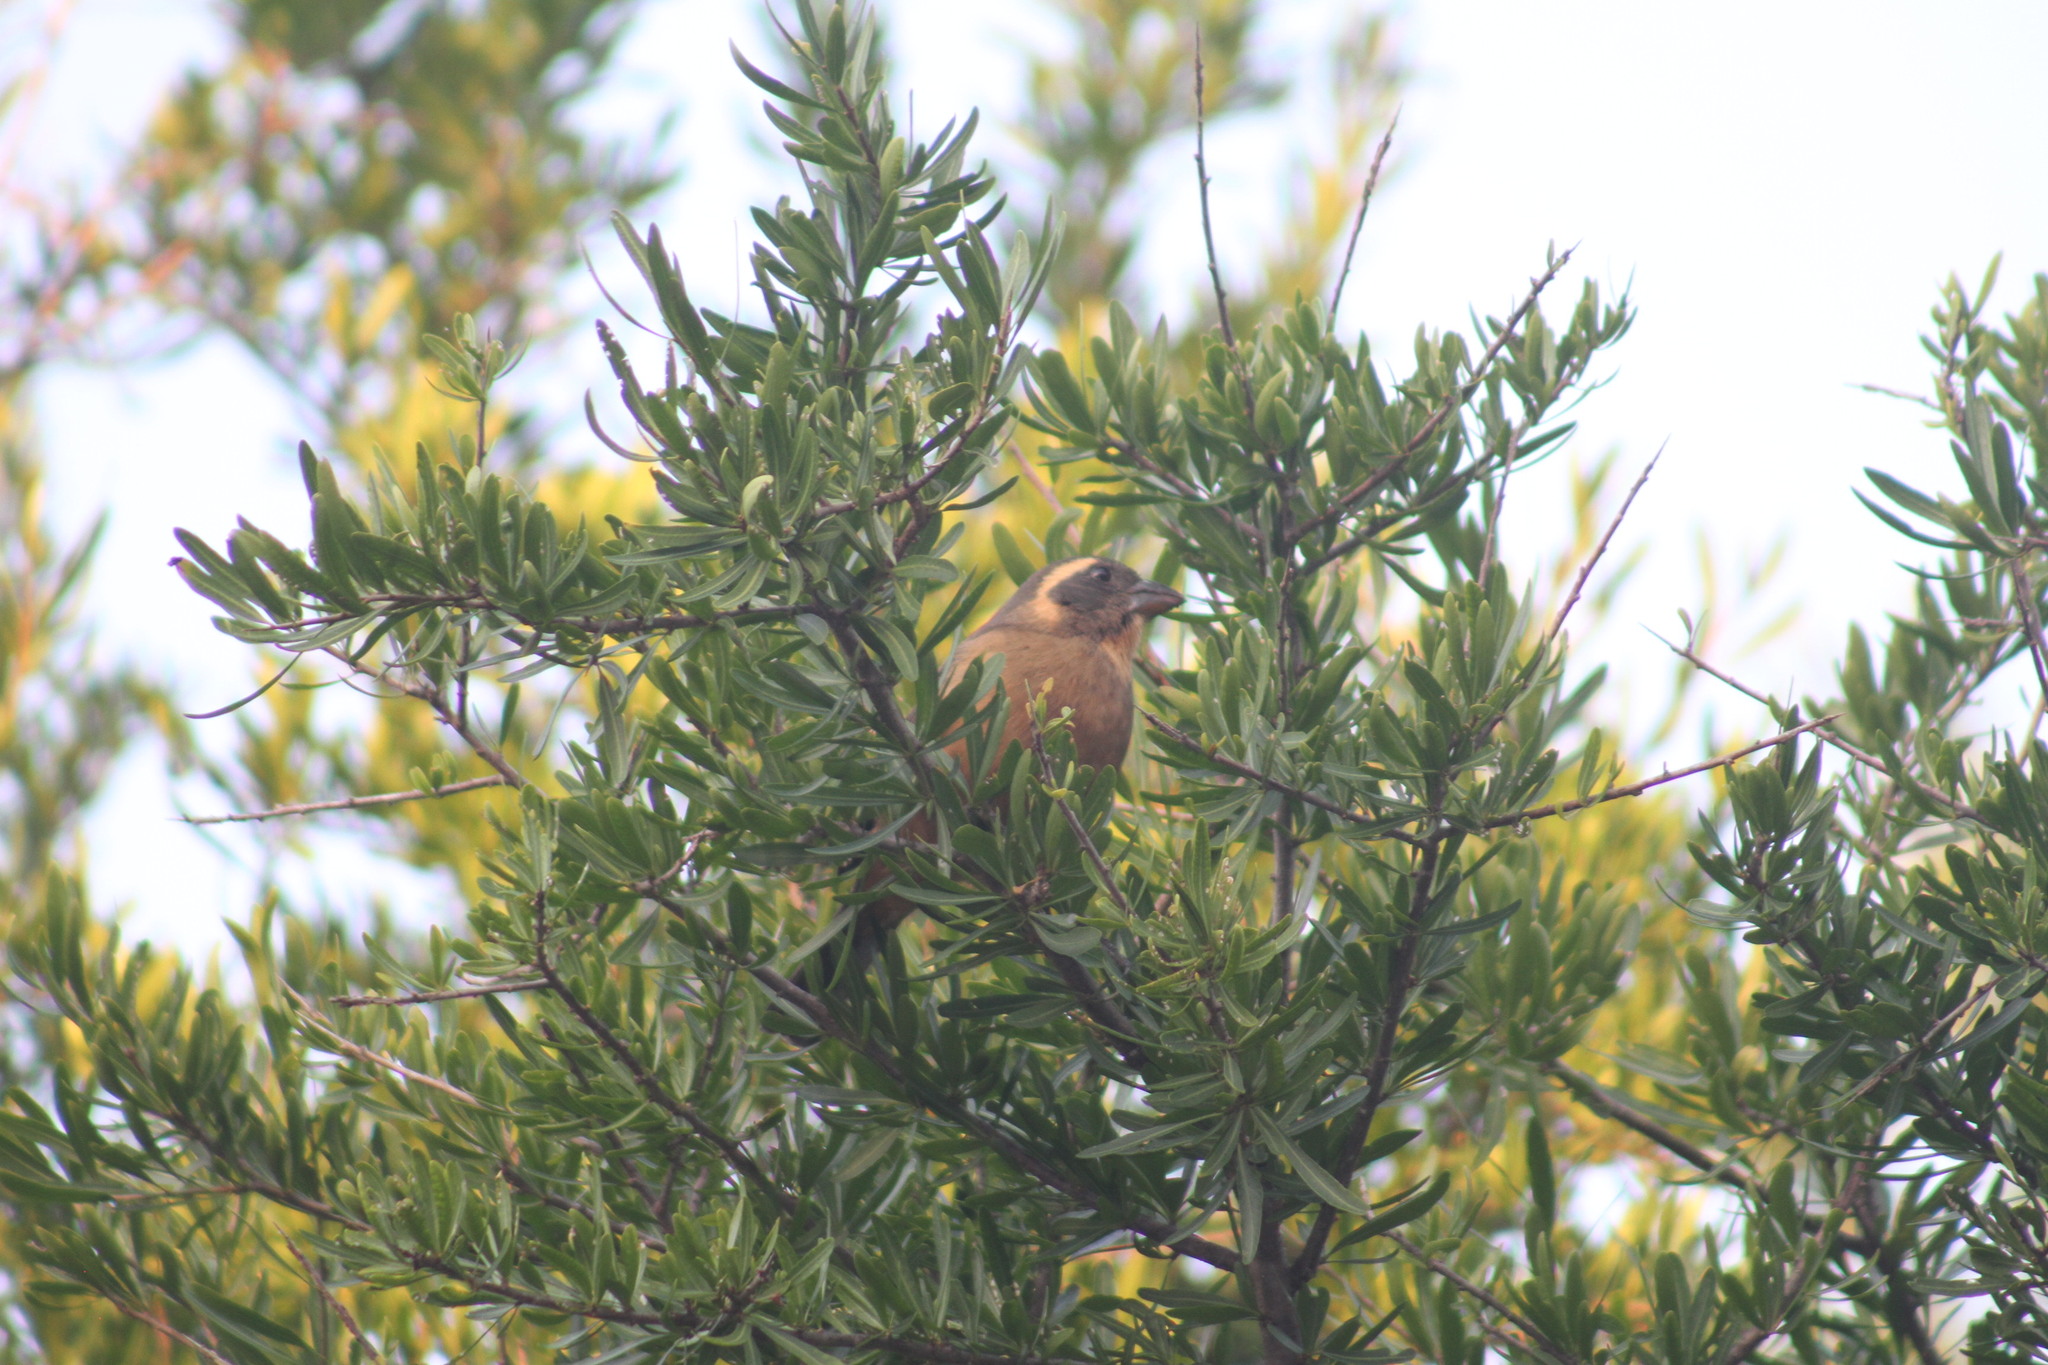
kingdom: Animalia
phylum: Chordata
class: Aves
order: Passeriformes
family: Thraupidae
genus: Saltator
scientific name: Saltator aurantiirostris
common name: Golden-billed saltator
